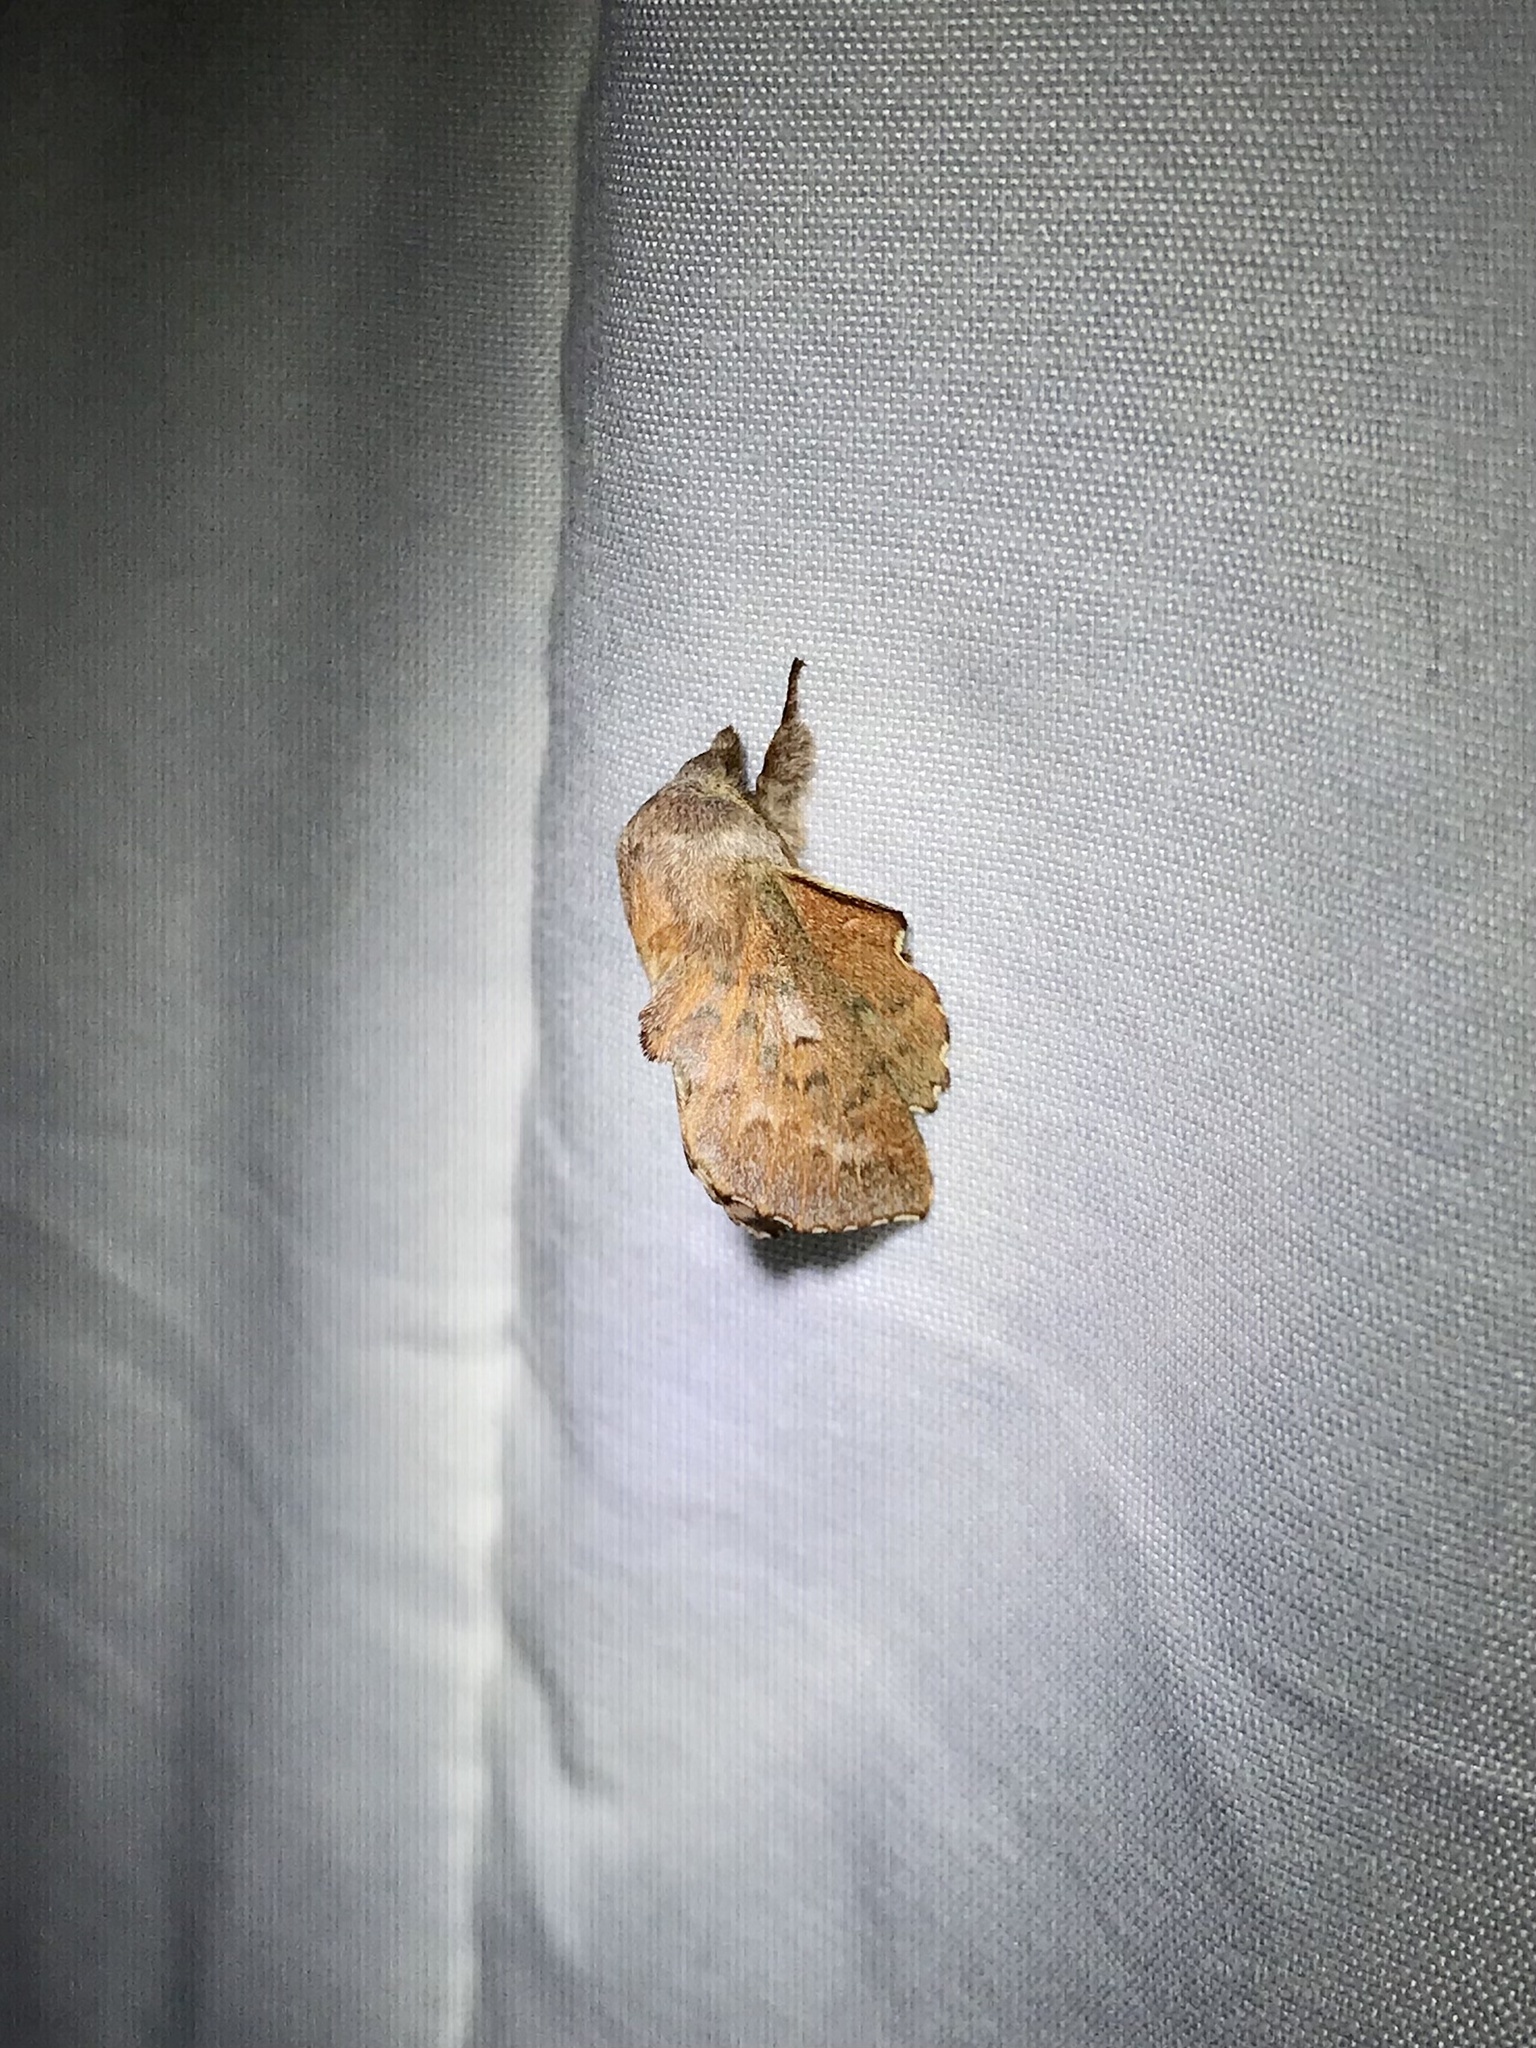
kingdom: Animalia
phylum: Arthropoda
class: Insecta
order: Lepidoptera
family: Lasiocampidae
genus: Phyllodesma
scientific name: Phyllodesma americana
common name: American lappet moth
